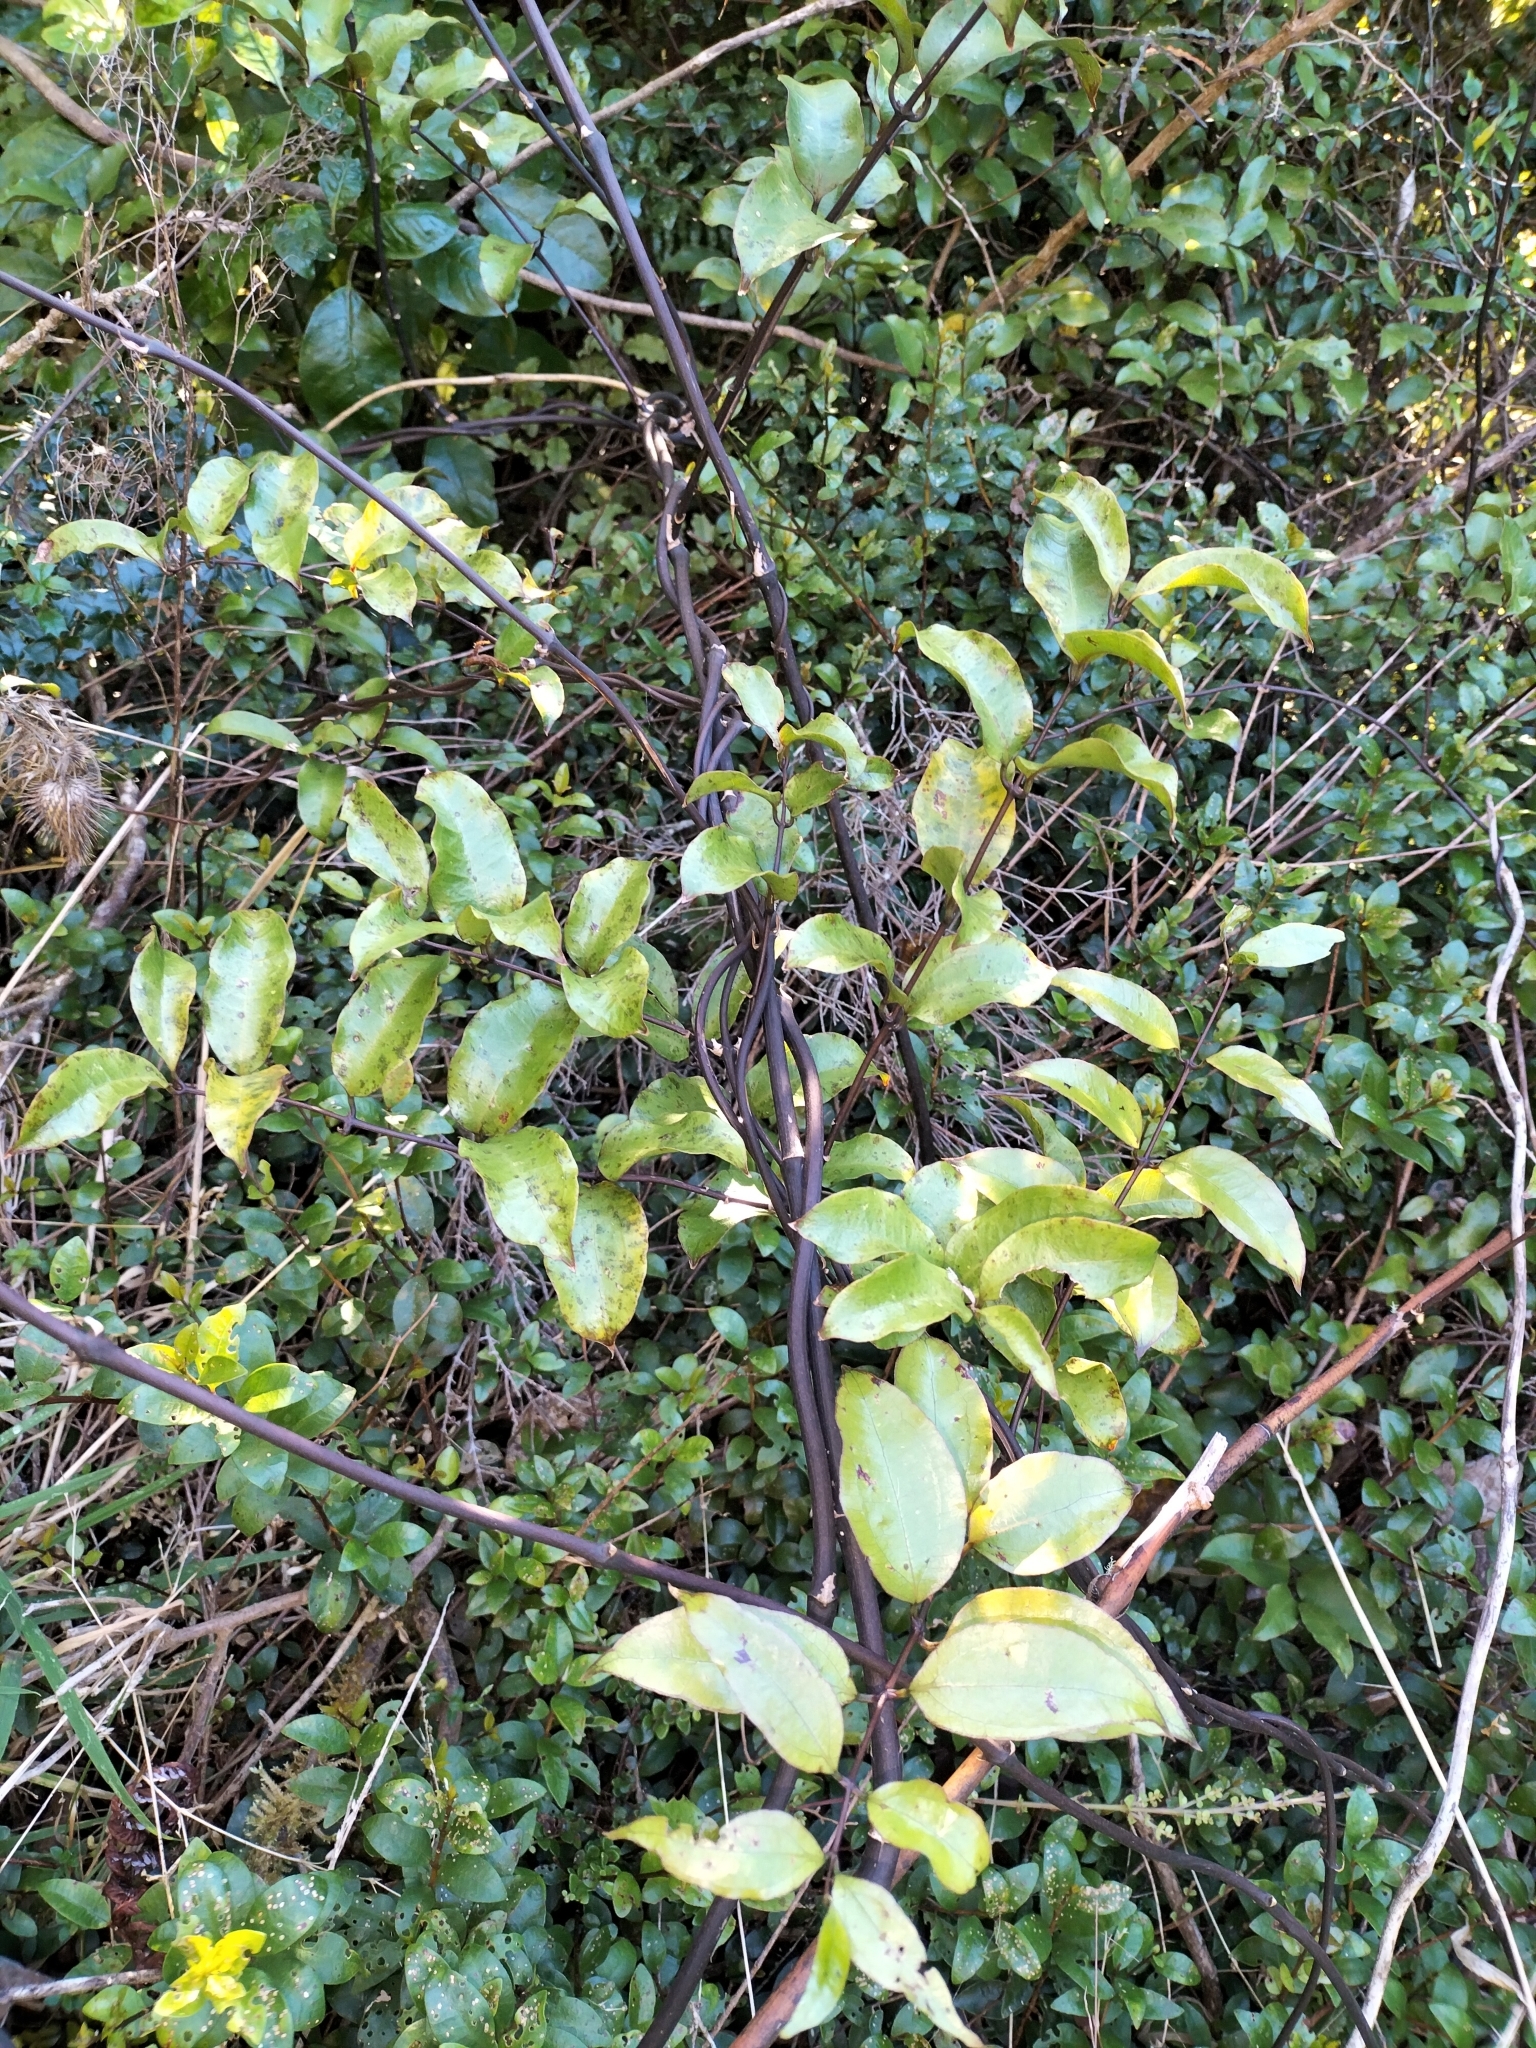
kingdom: Plantae
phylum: Tracheophyta
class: Liliopsida
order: Liliales
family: Ripogonaceae
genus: Ripogonum
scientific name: Ripogonum scandens
